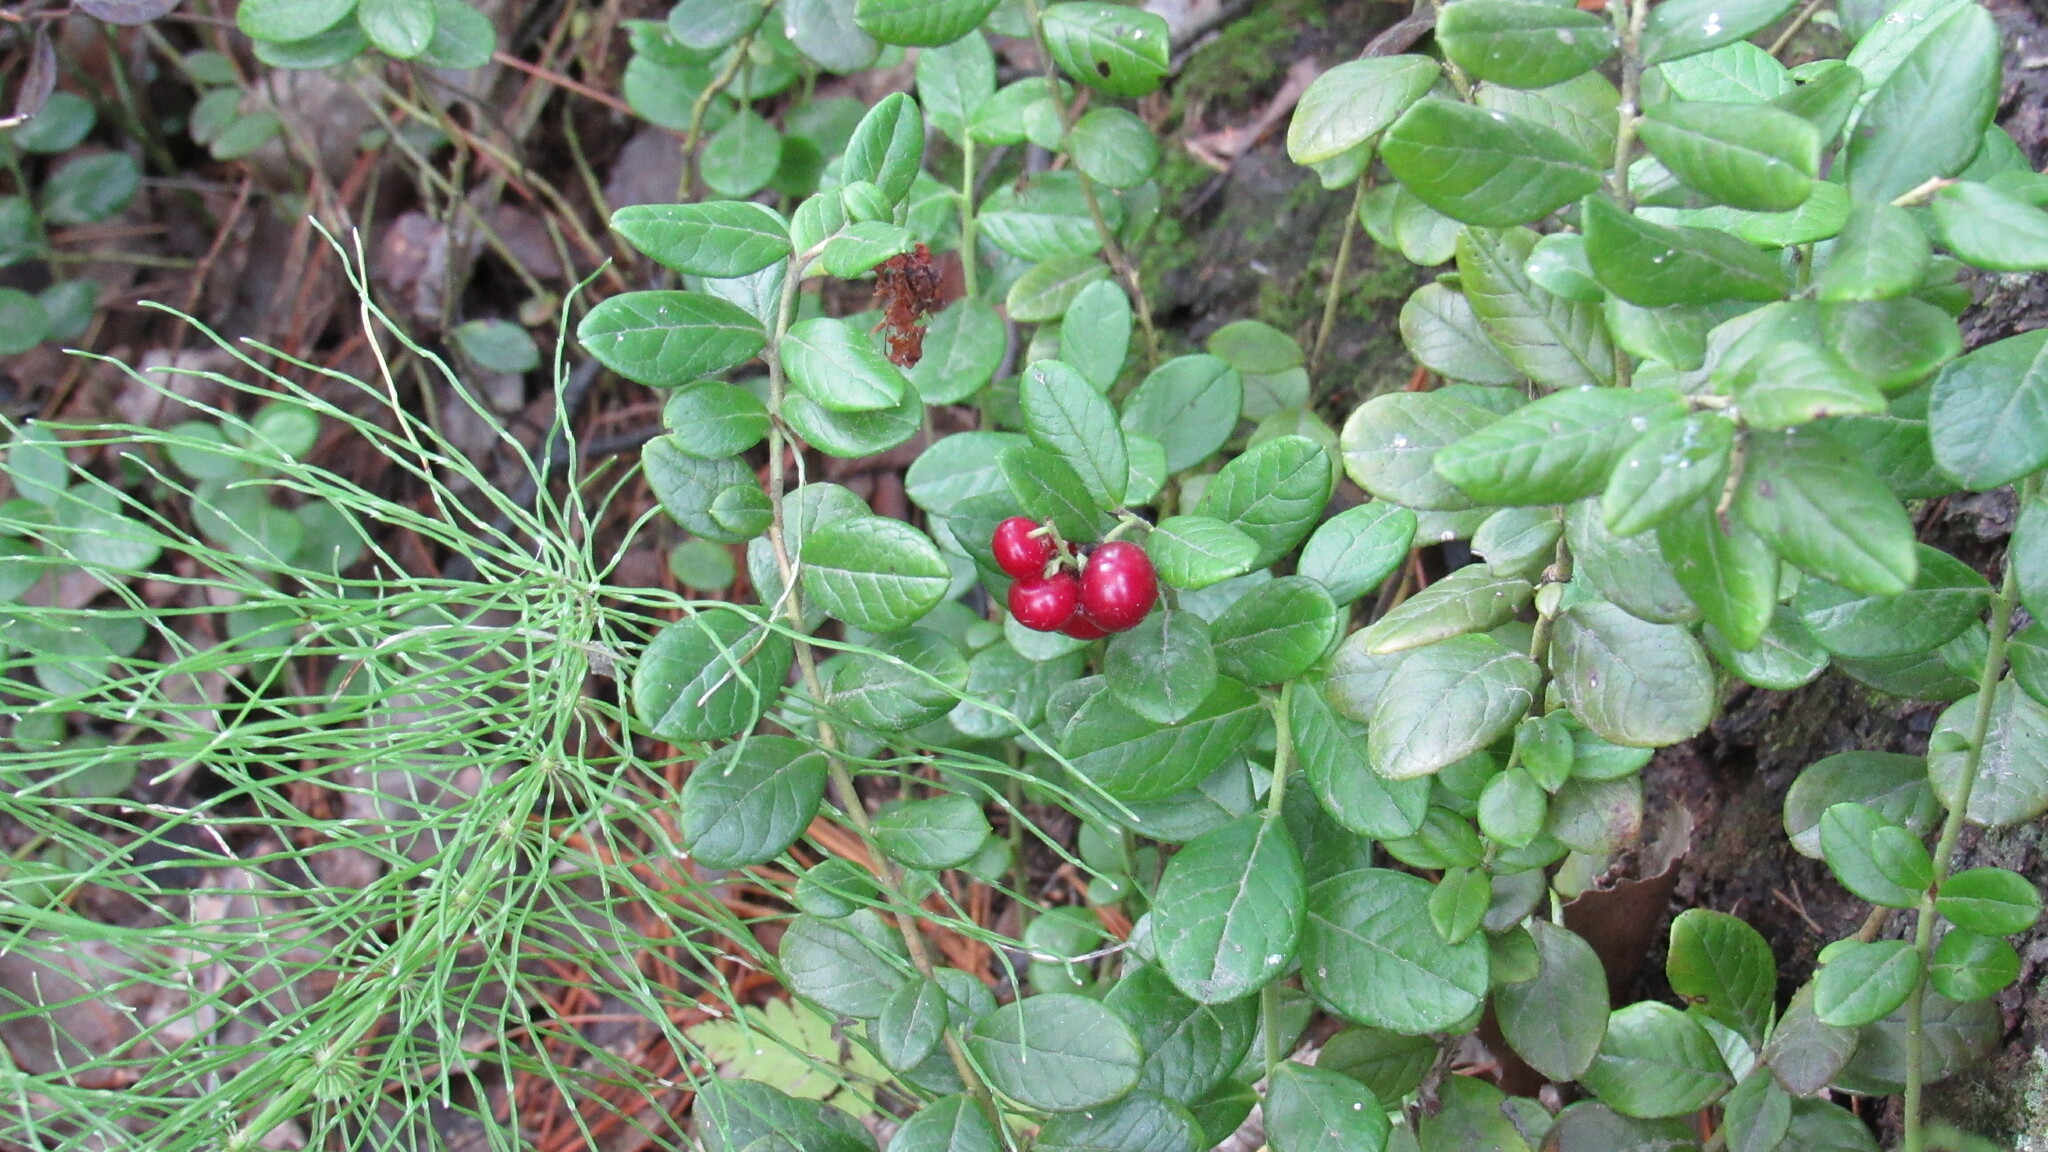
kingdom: Plantae
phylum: Tracheophyta
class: Magnoliopsida
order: Ericales
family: Ericaceae
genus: Vaccinium
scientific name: Vaccinium vitis-idaea
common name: Cowberry
